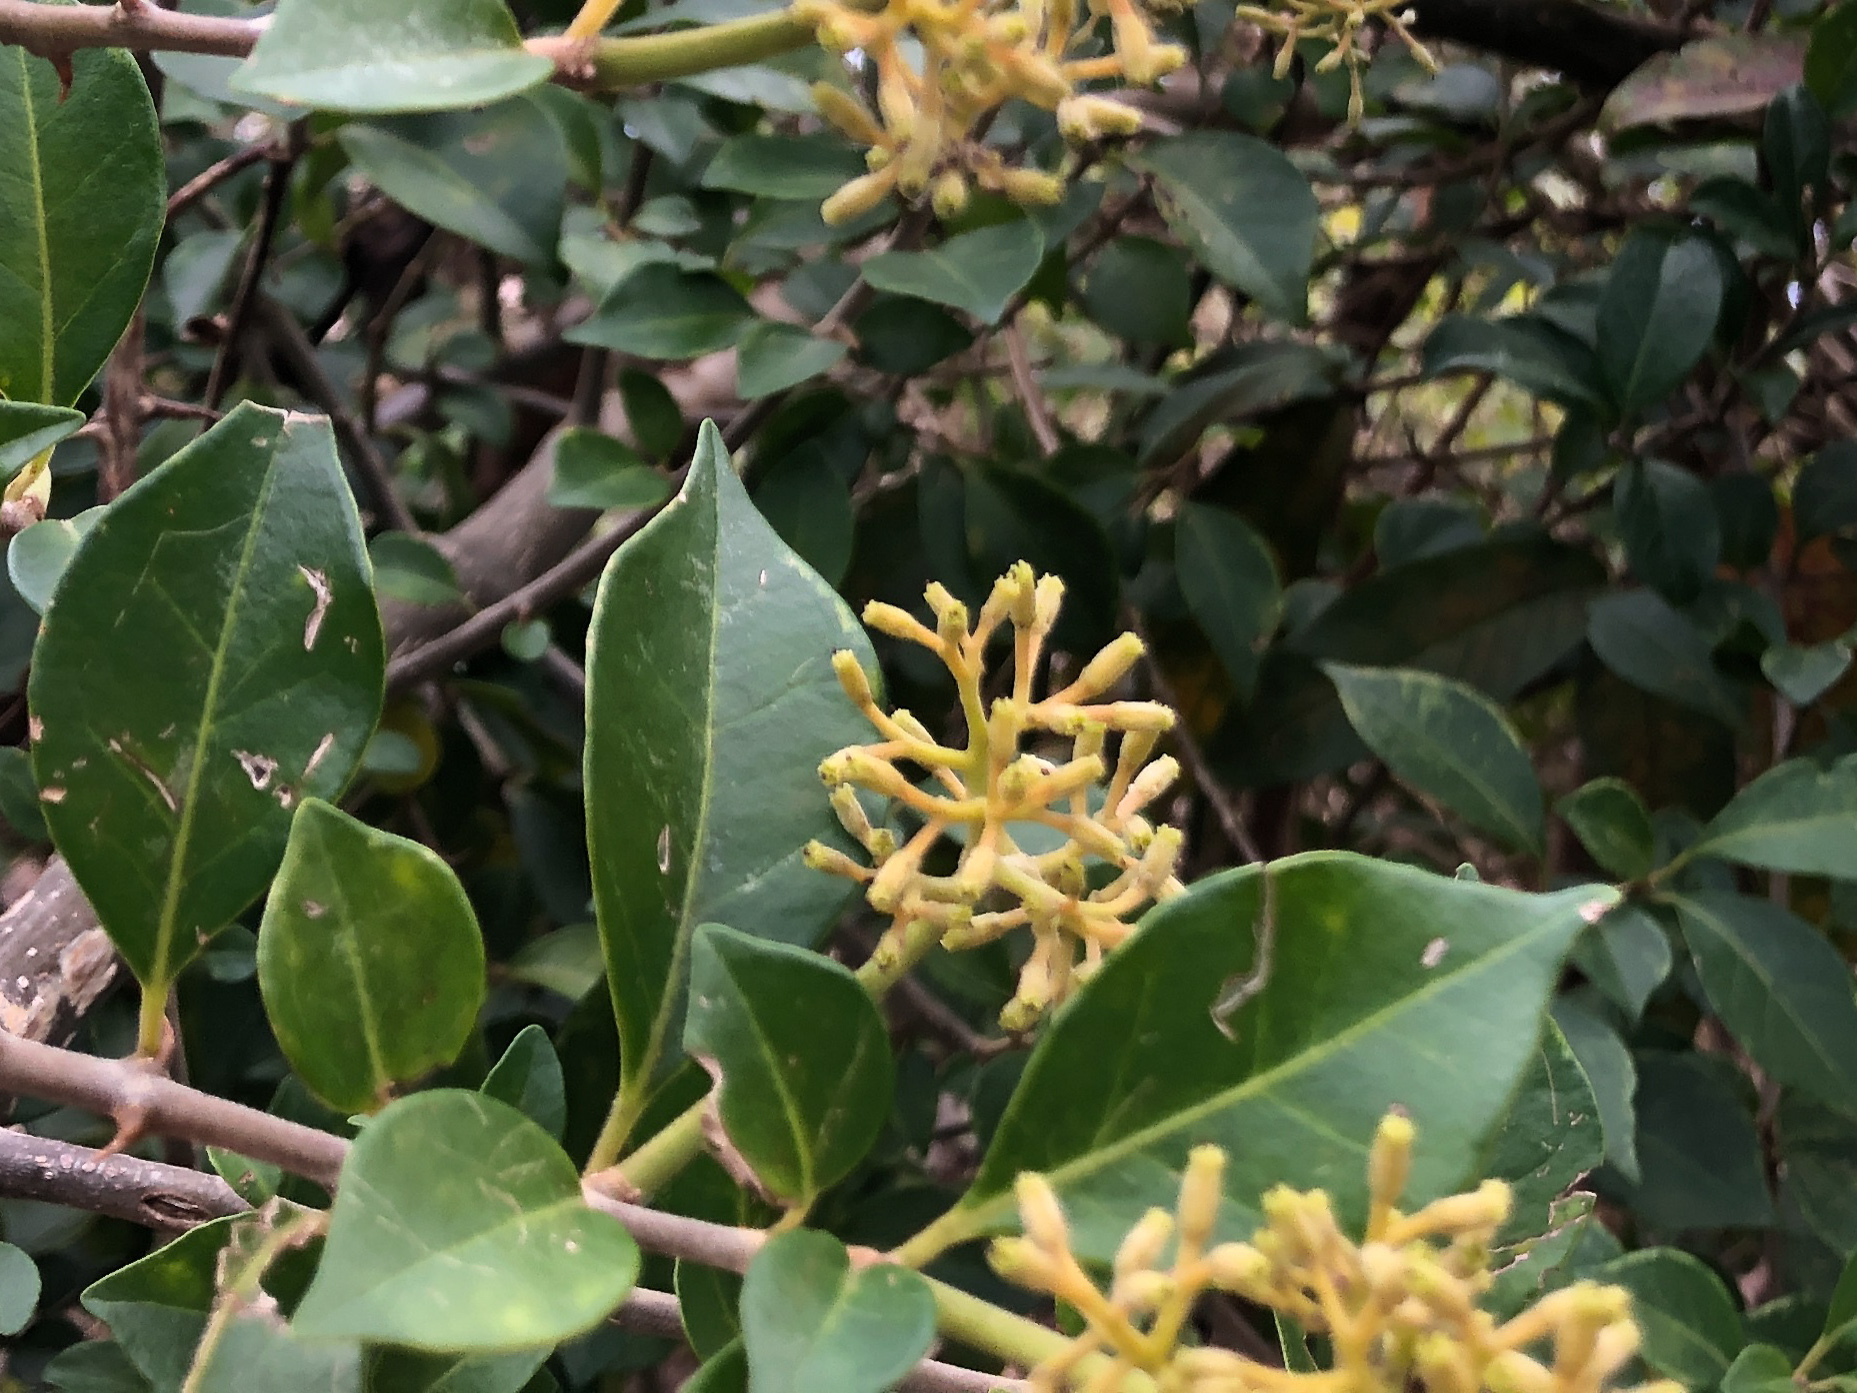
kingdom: Plantae
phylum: Tracheophyta
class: Magnoliopsida
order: Caryophyllales
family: Nyctaginaceae
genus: Pisonia
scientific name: Pisonia aculeata
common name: Cockspur vine
